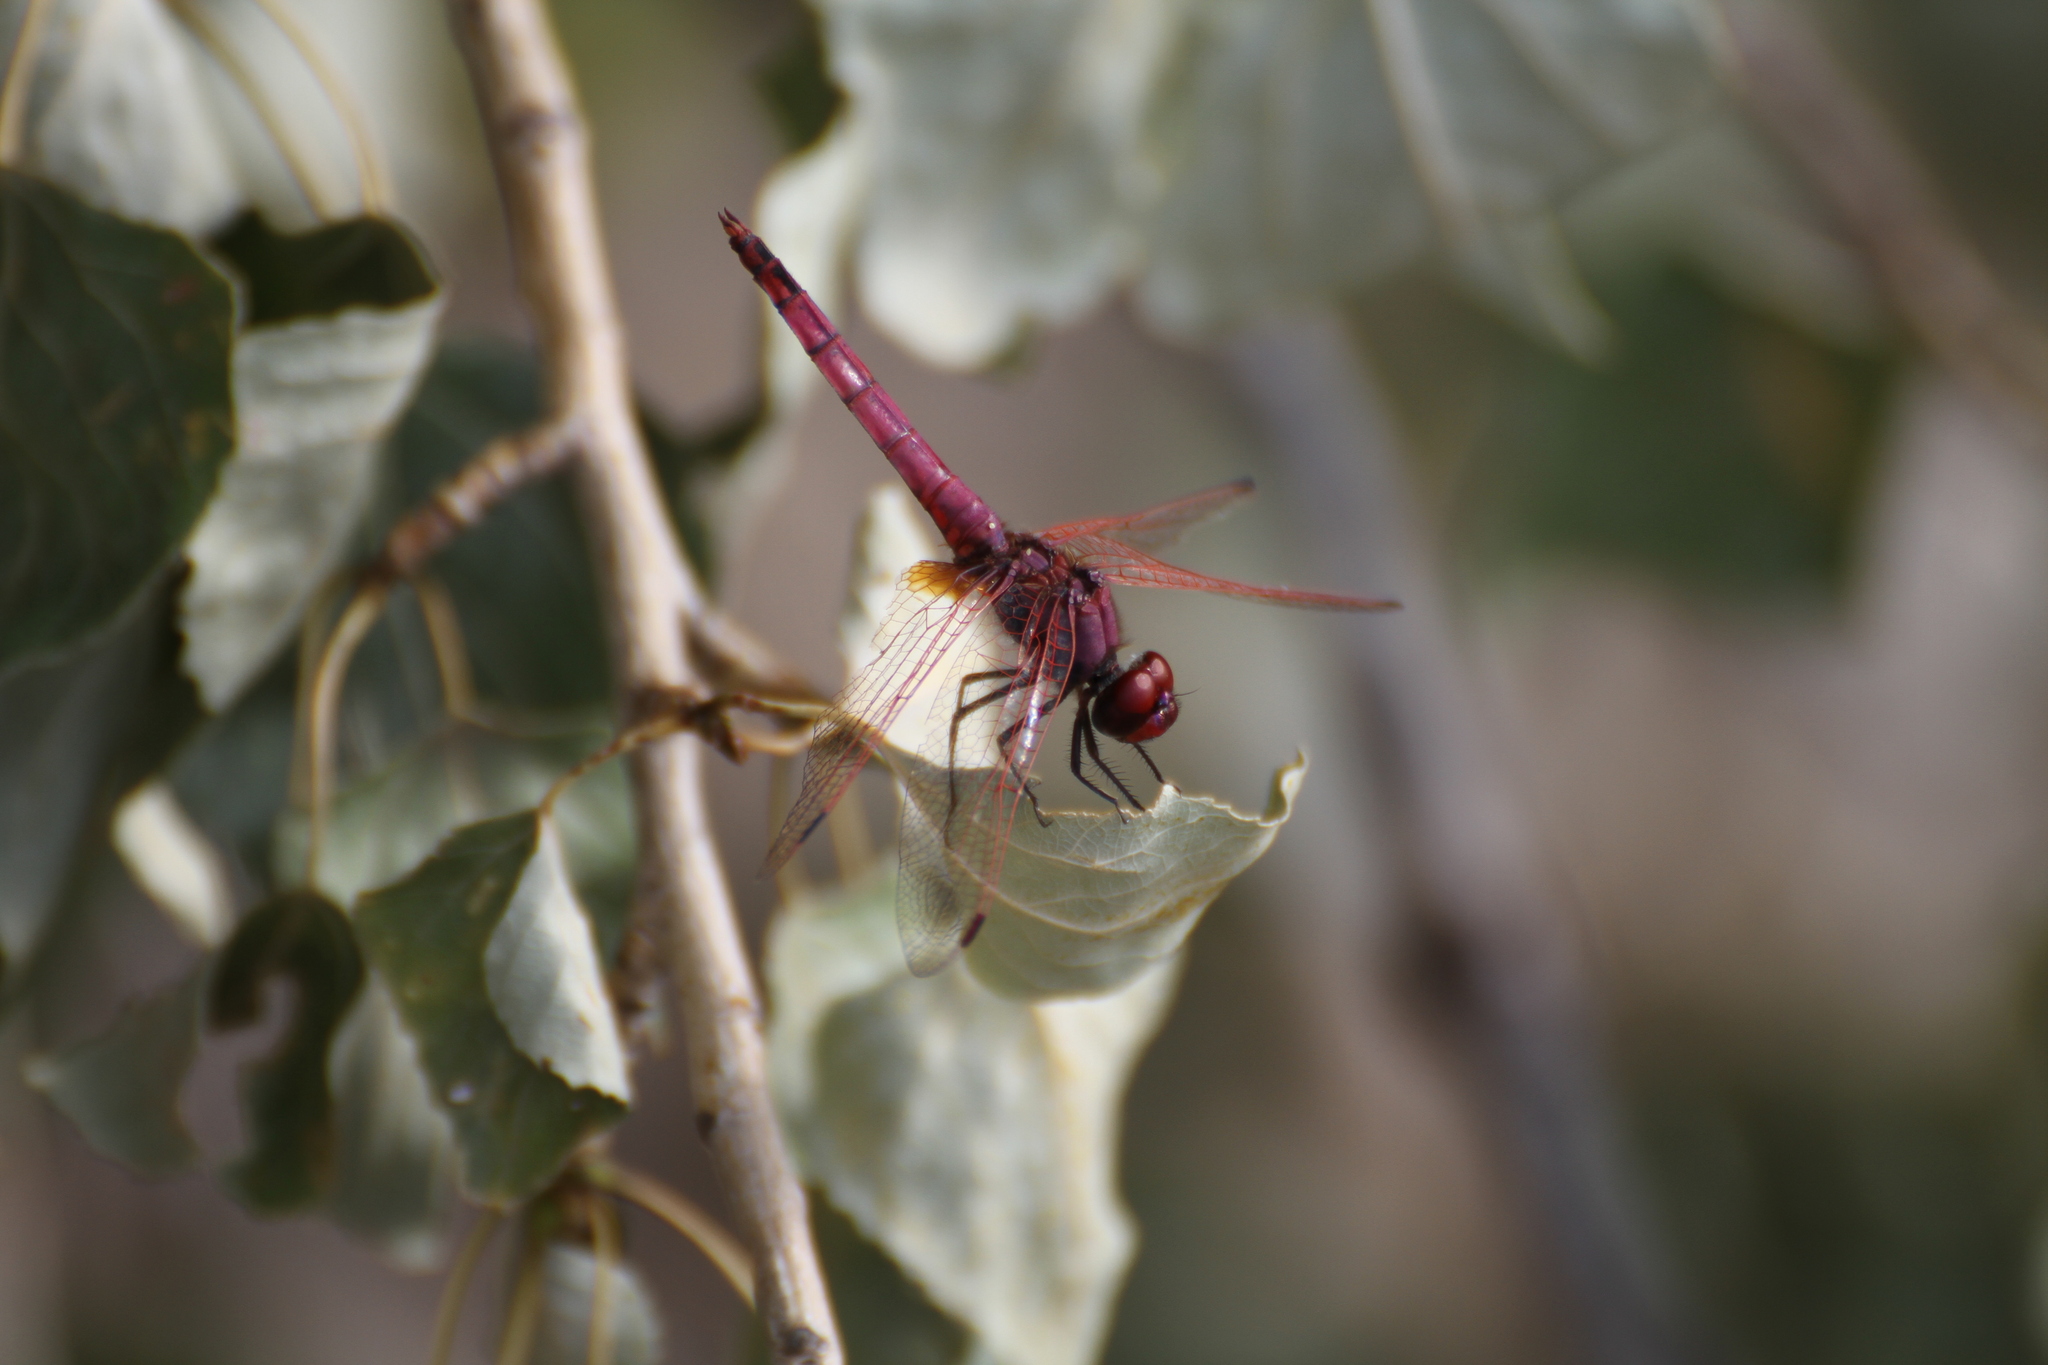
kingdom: Animalia
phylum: Arthropoda
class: Insecta
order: Odonata
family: Libellulidae
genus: Trithemis
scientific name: Trithemis annulata
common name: Violet dropwing
